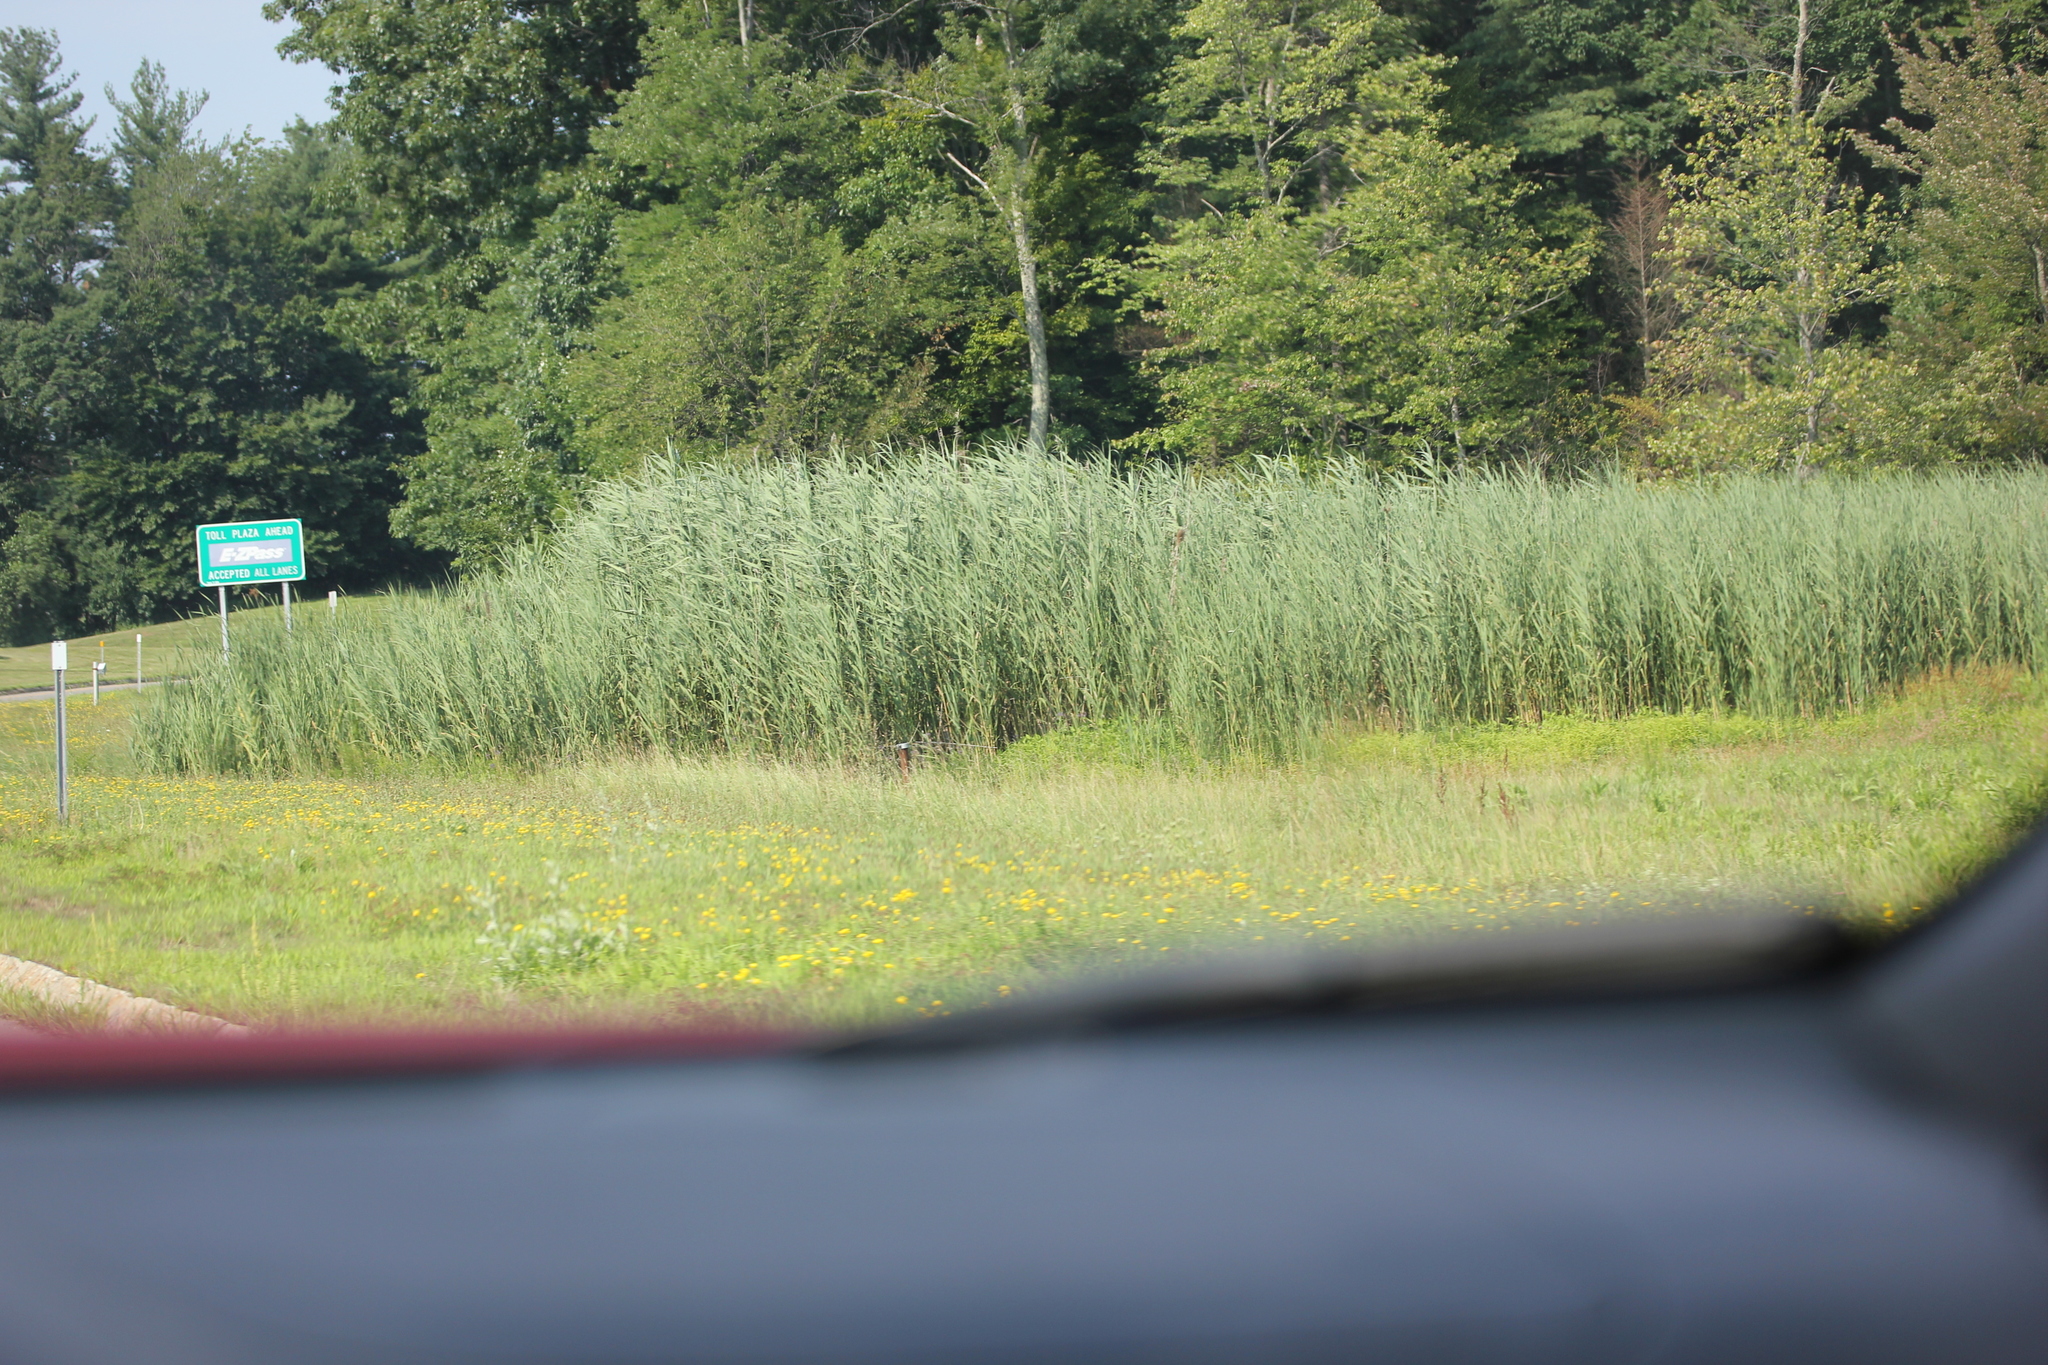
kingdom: Plantae
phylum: Tracheophyta
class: Liliopsida
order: Poales
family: Poaceae
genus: Phragmites
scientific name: Phragmites australis
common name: Common reed
